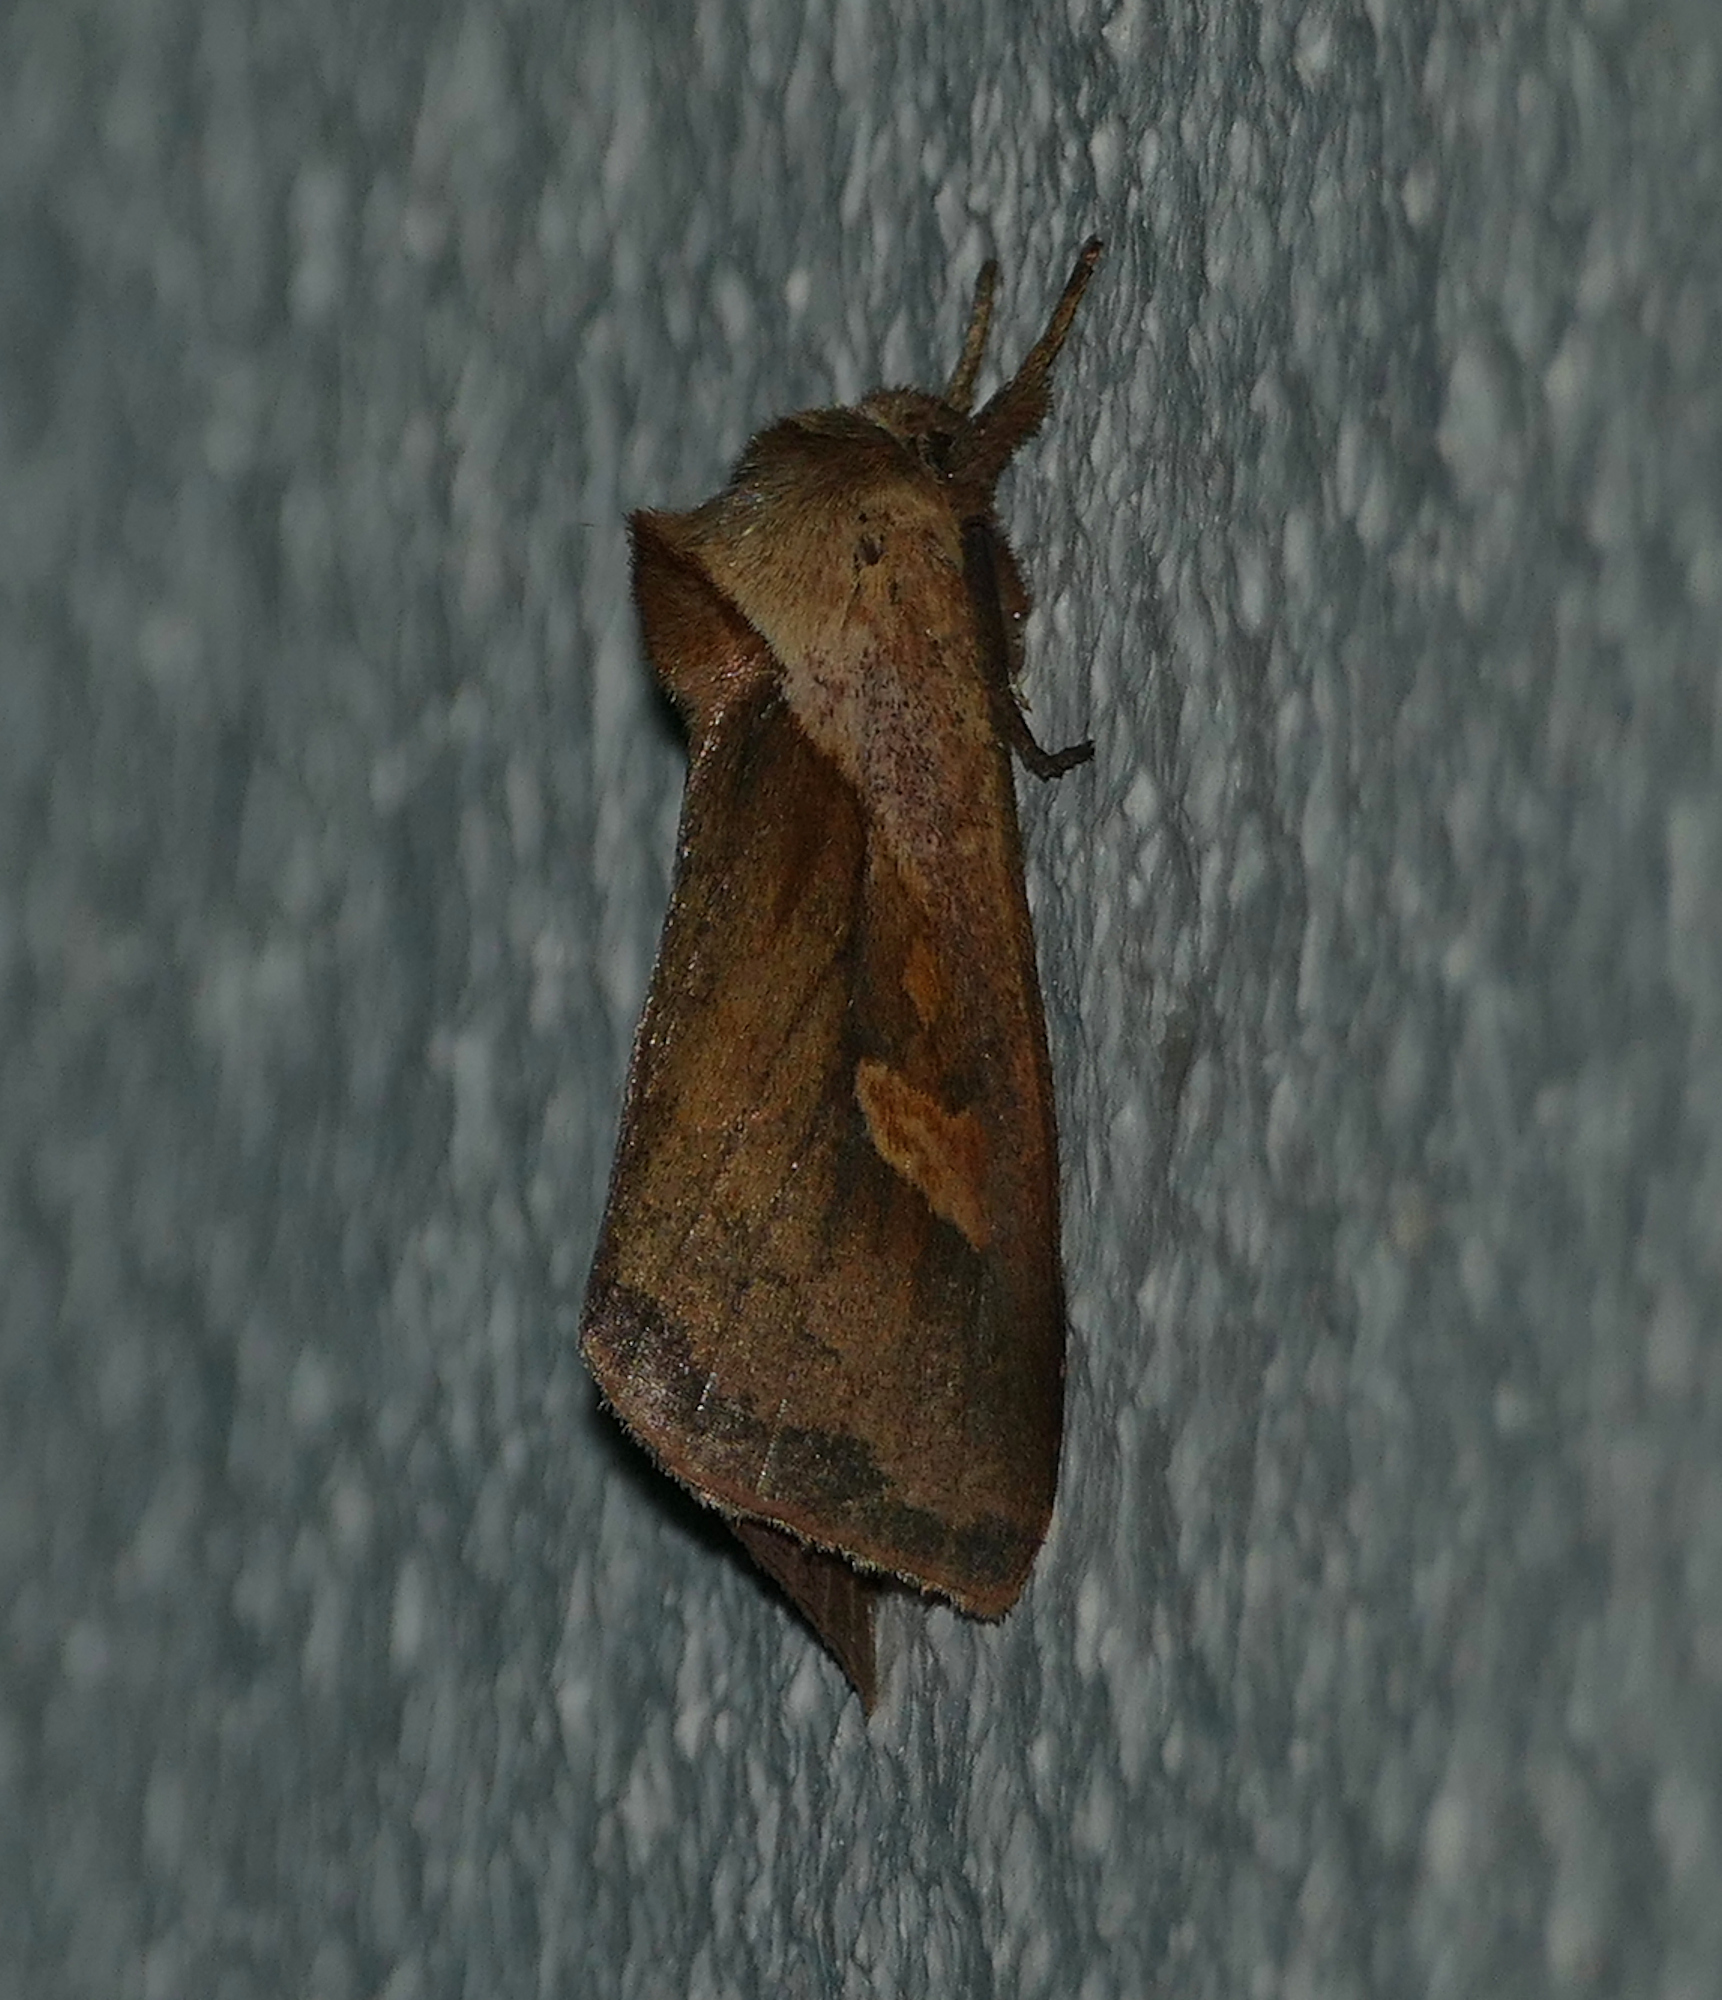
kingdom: Animalia
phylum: Arthropoda
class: Insecta
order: Lepidoptera
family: Noctuidae
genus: Bellura
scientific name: Bellura obliqua
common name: Cattail borer moth
